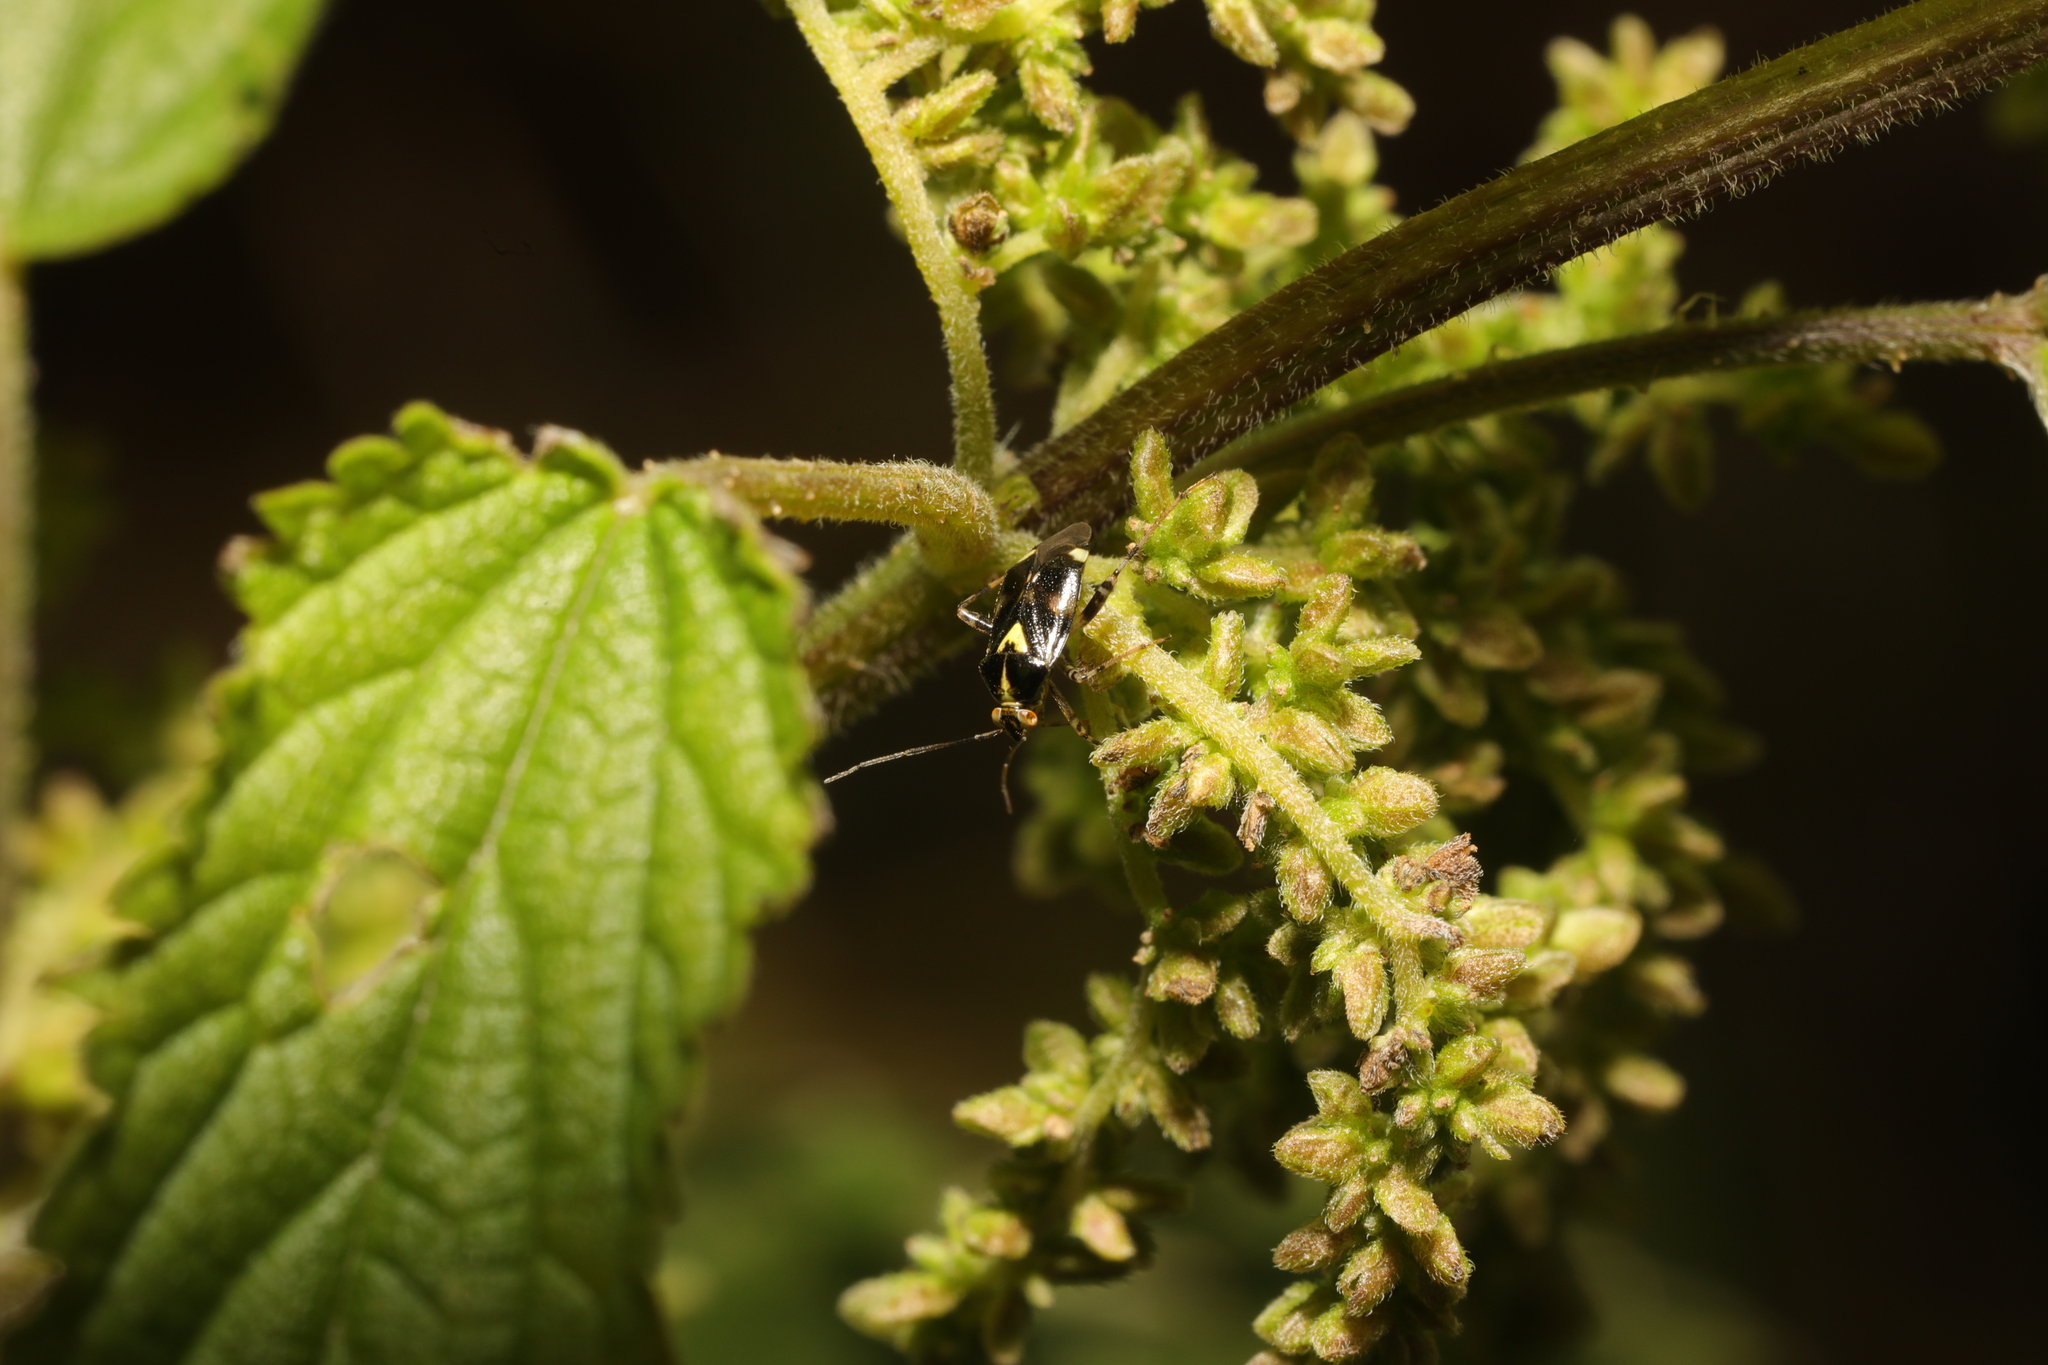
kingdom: Animalia
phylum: Arthropoda
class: Insecta
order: Hemiptera
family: Miridae
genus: Liocoris
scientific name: Liocoris tripustulatus
